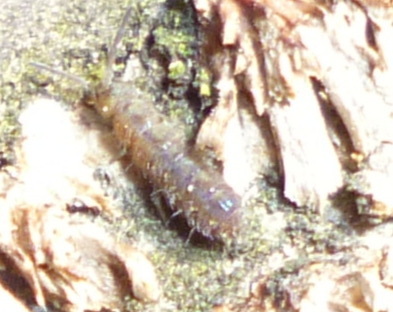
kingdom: Animalia
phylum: Arthropoda
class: Collembola
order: Entomobryomorpha
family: Isotomidae
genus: Isotoma
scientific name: Isotoma delta
